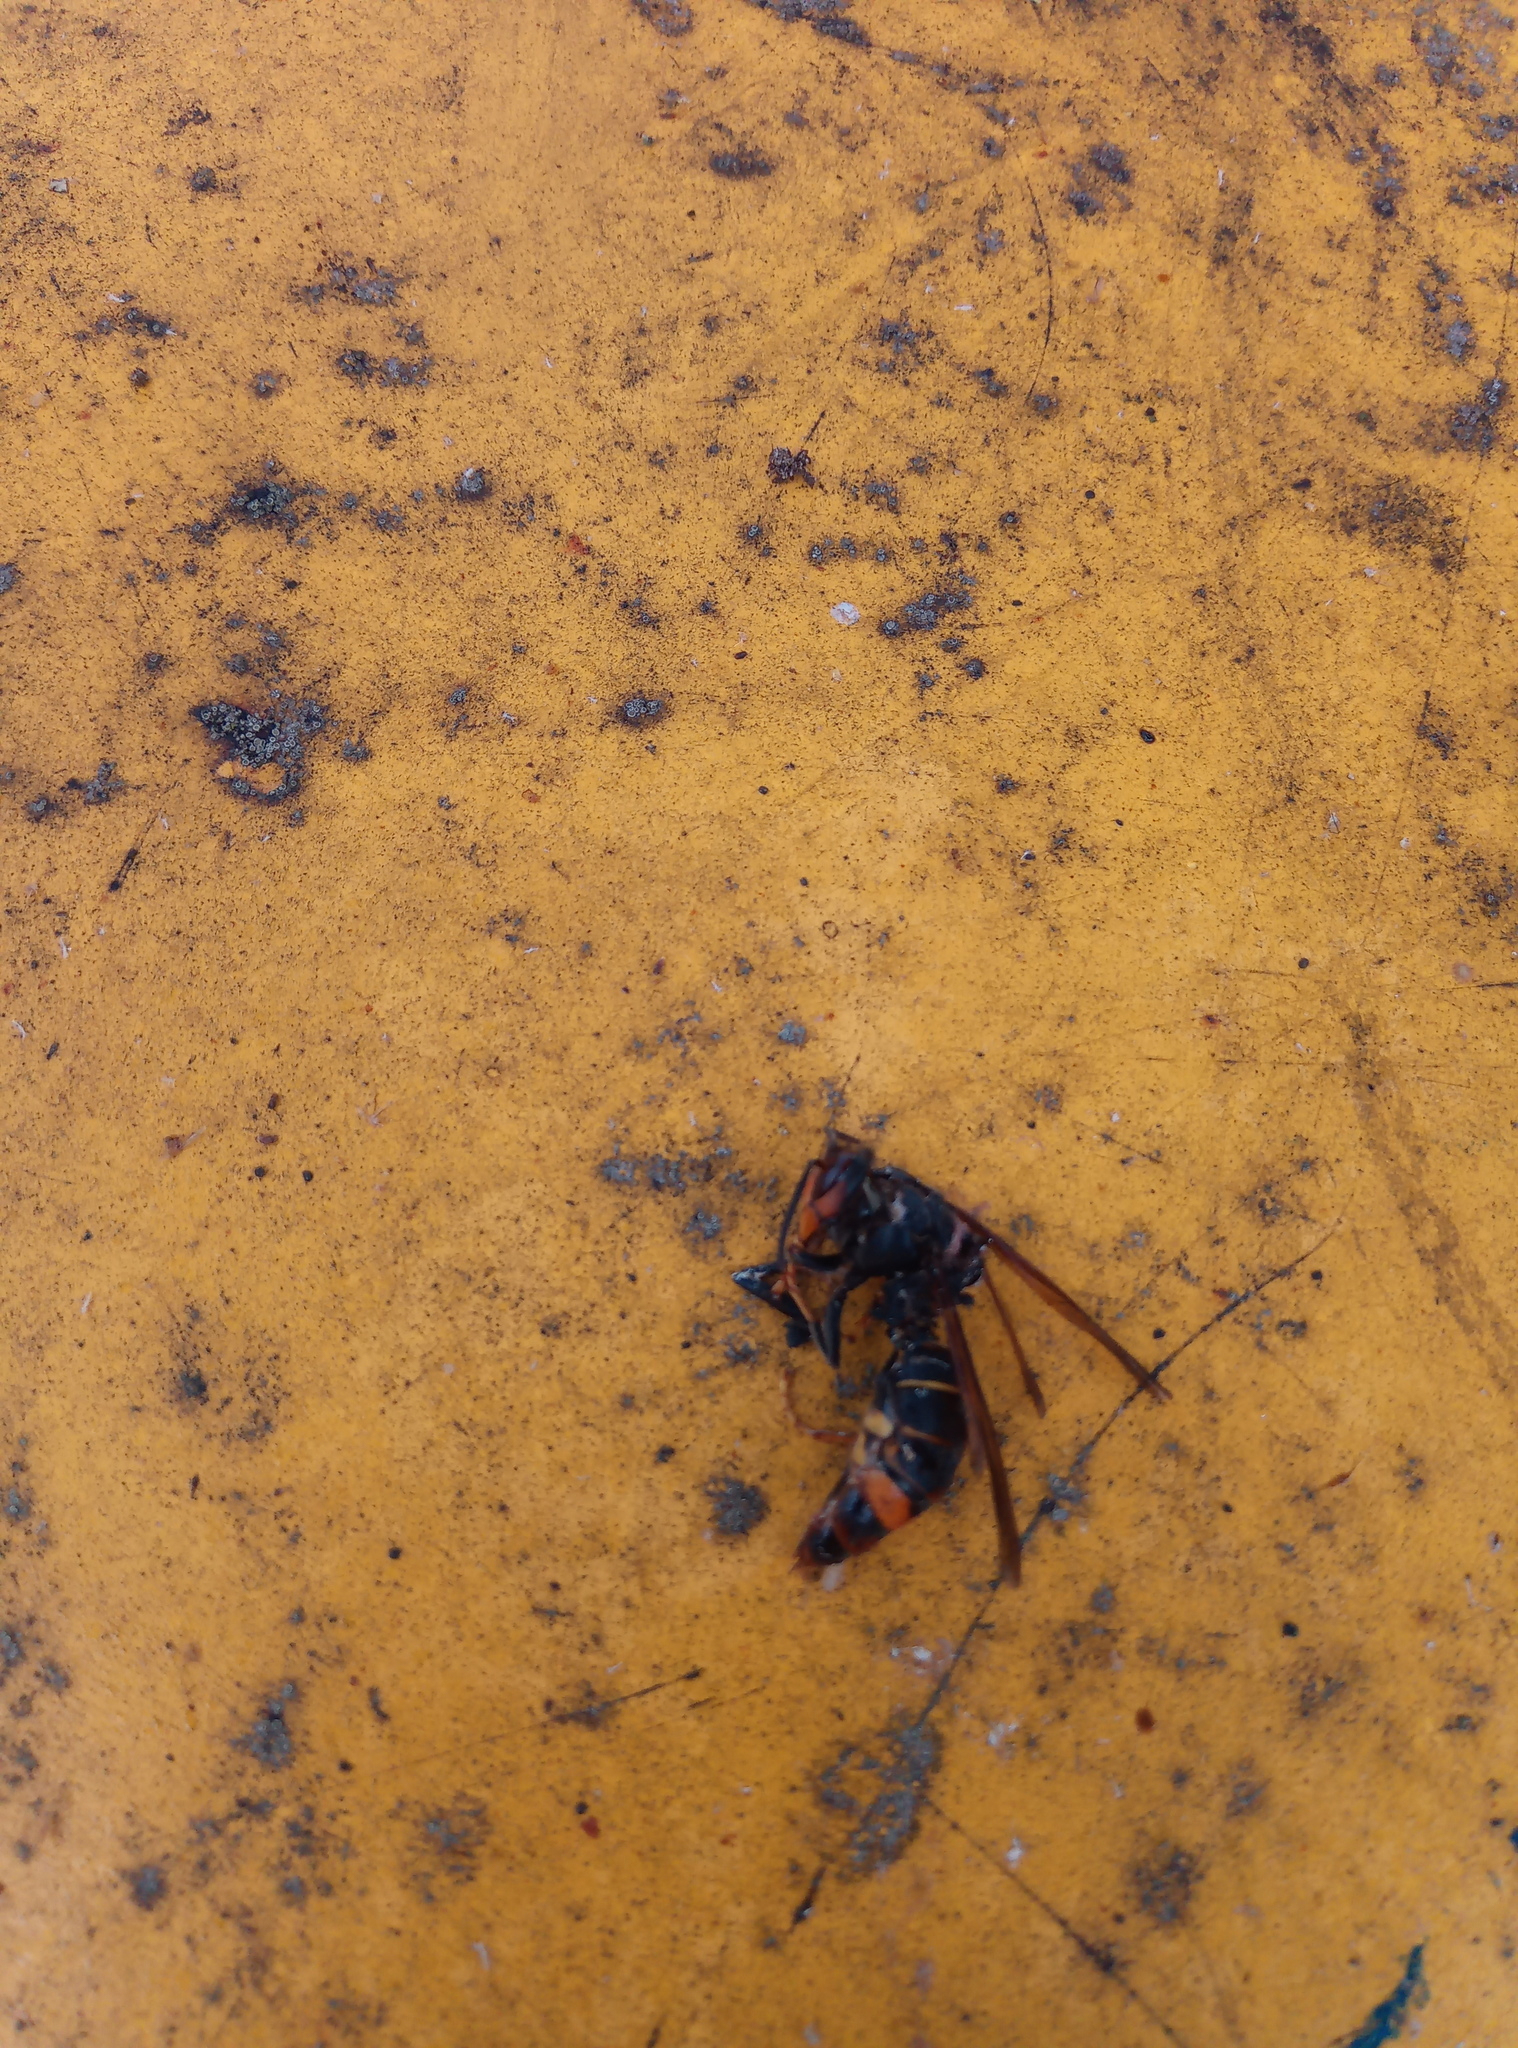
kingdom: Animalia
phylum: Arthropoda
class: Insecta
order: Hymenoptera
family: Vespidae
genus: Vespa
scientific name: Vespa velutina
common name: Asian hornet
